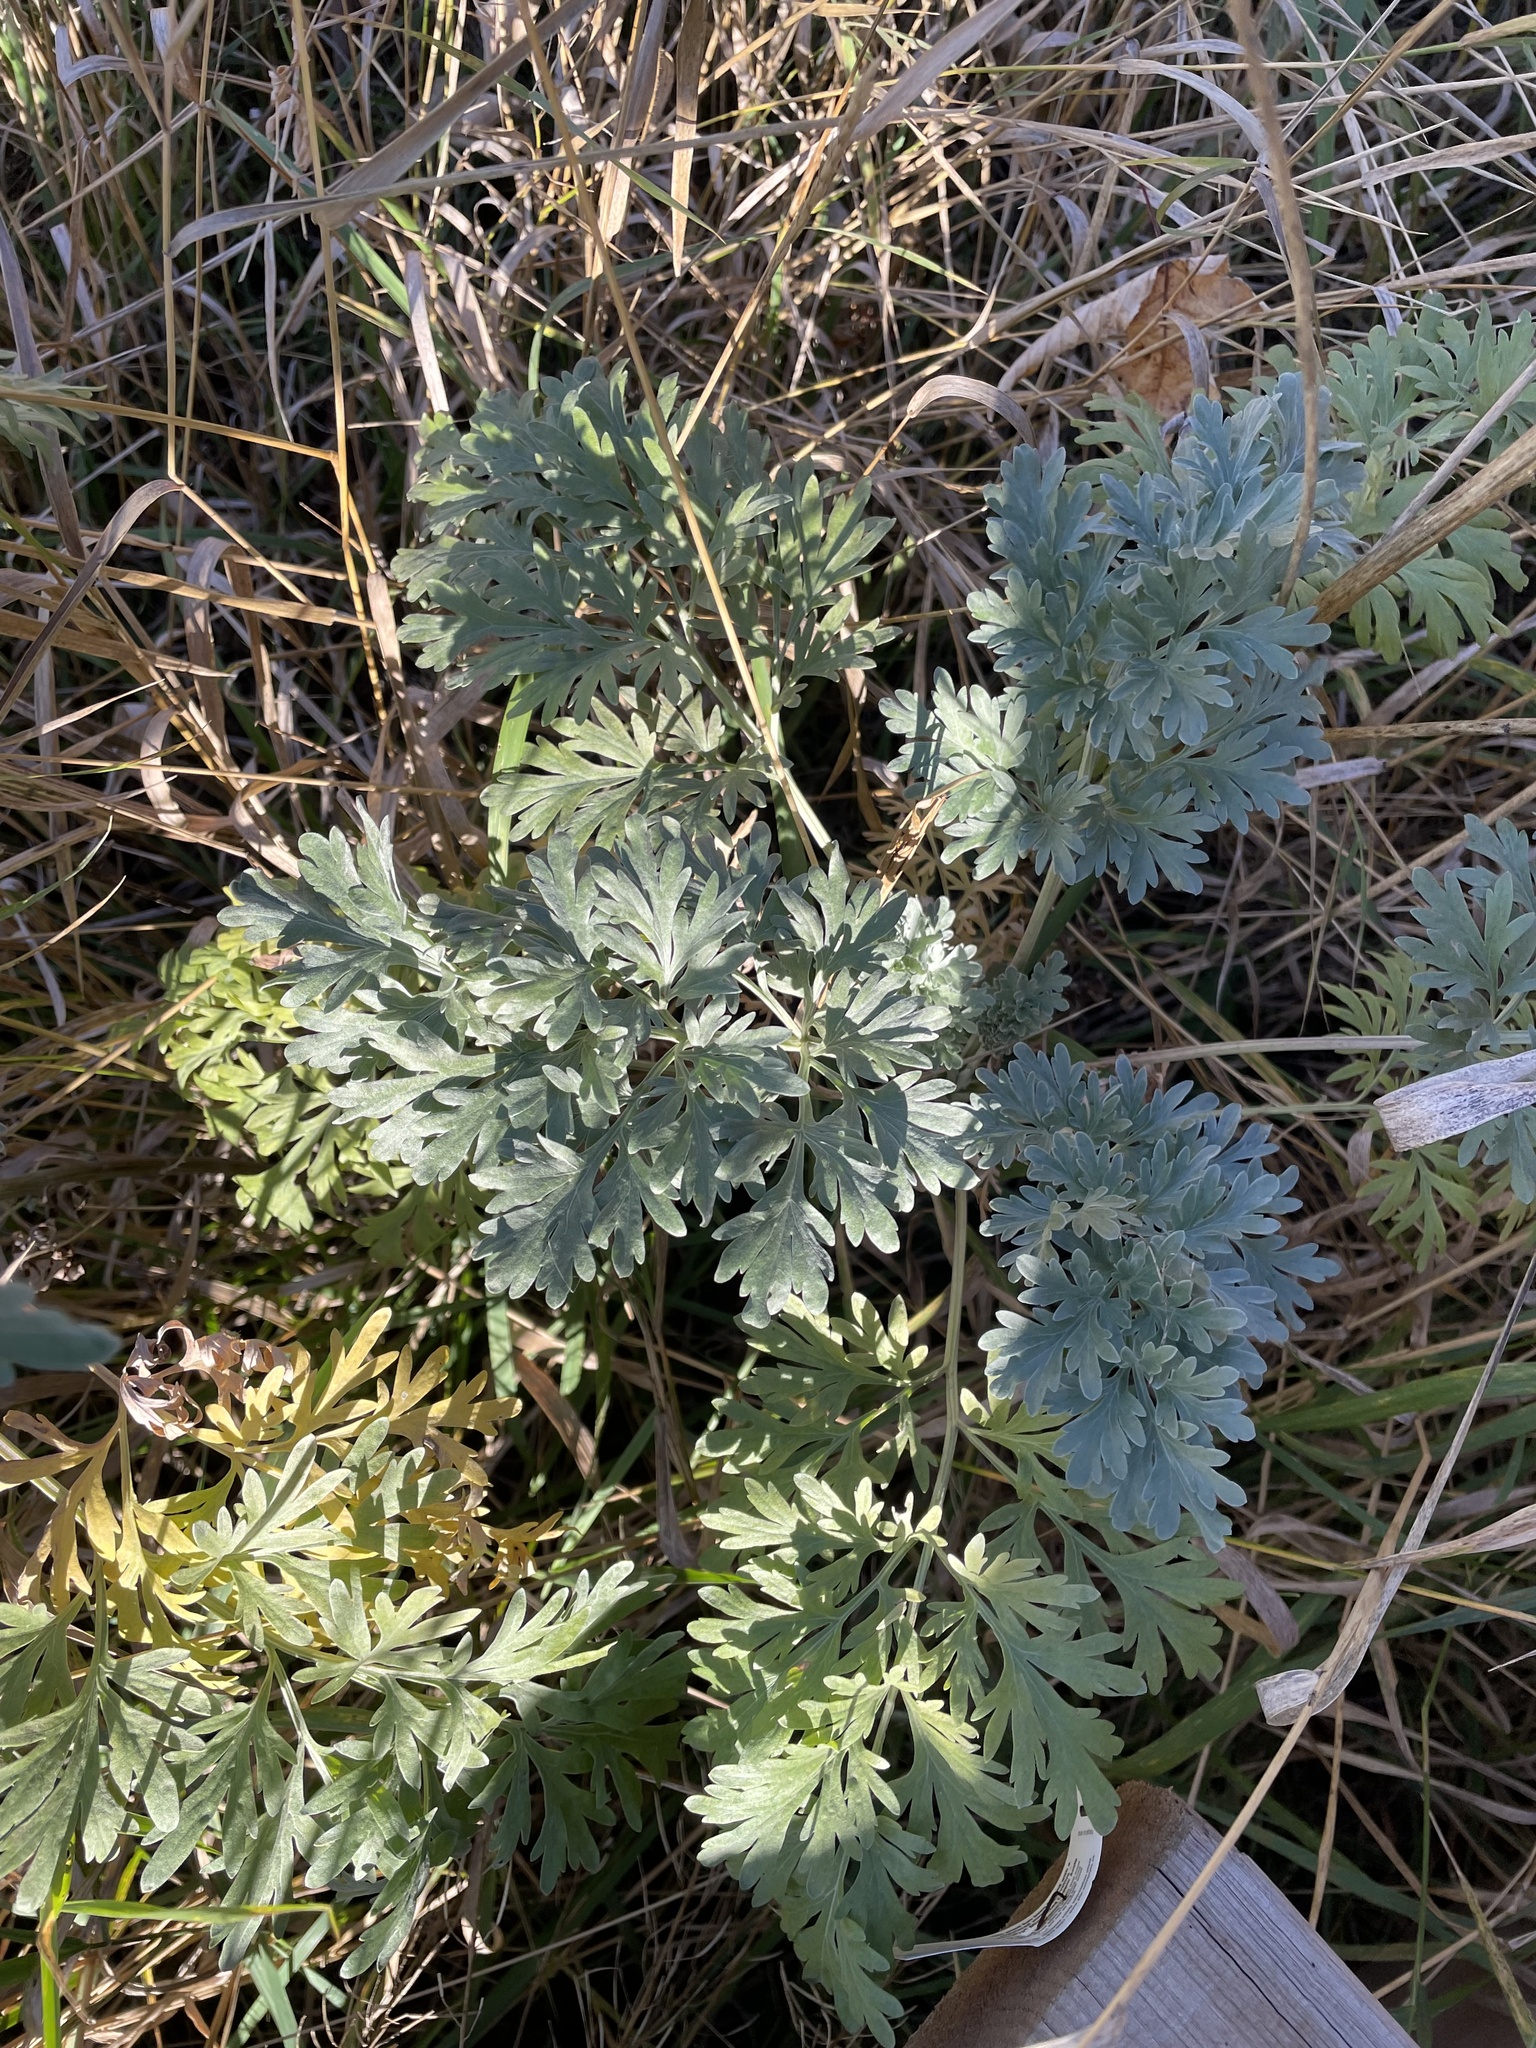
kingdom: Plantae
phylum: Tracheophyta
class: Magnoliopsida
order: Asterales
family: Asteraceae
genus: Artemisia
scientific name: Artemisia absinthium
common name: Wormwood
